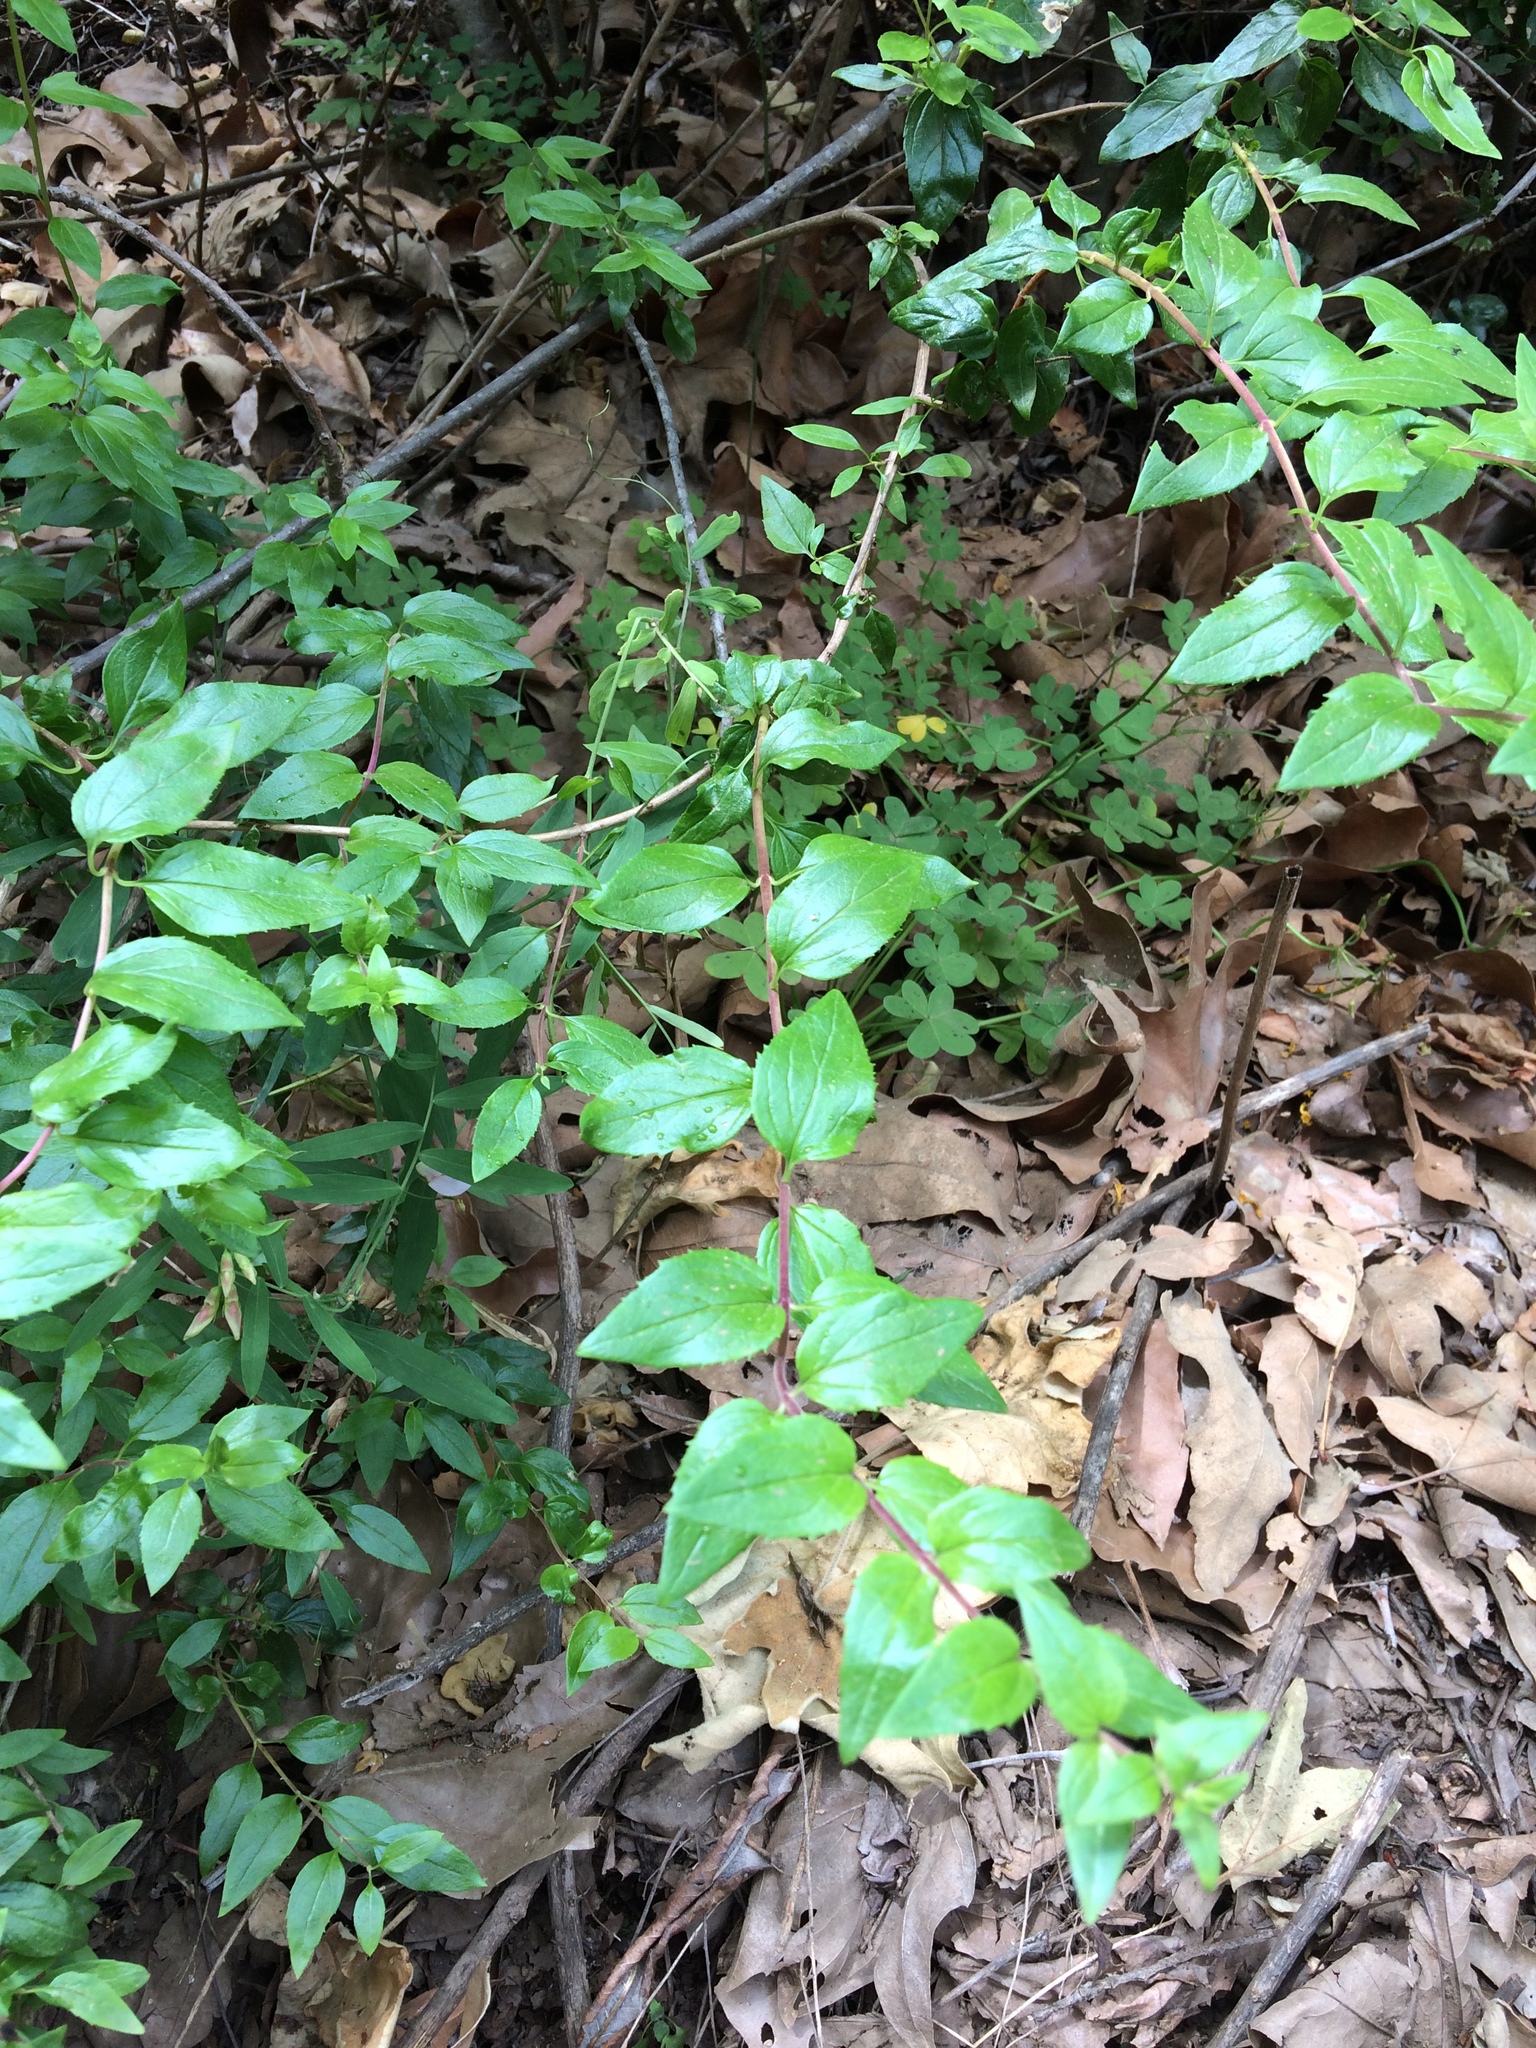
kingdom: Plantae
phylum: Tracheophyta
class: Magnoliopsida
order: Lamiales
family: Plantaginaceae
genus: Keckiella
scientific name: Keckiella cordifolia
